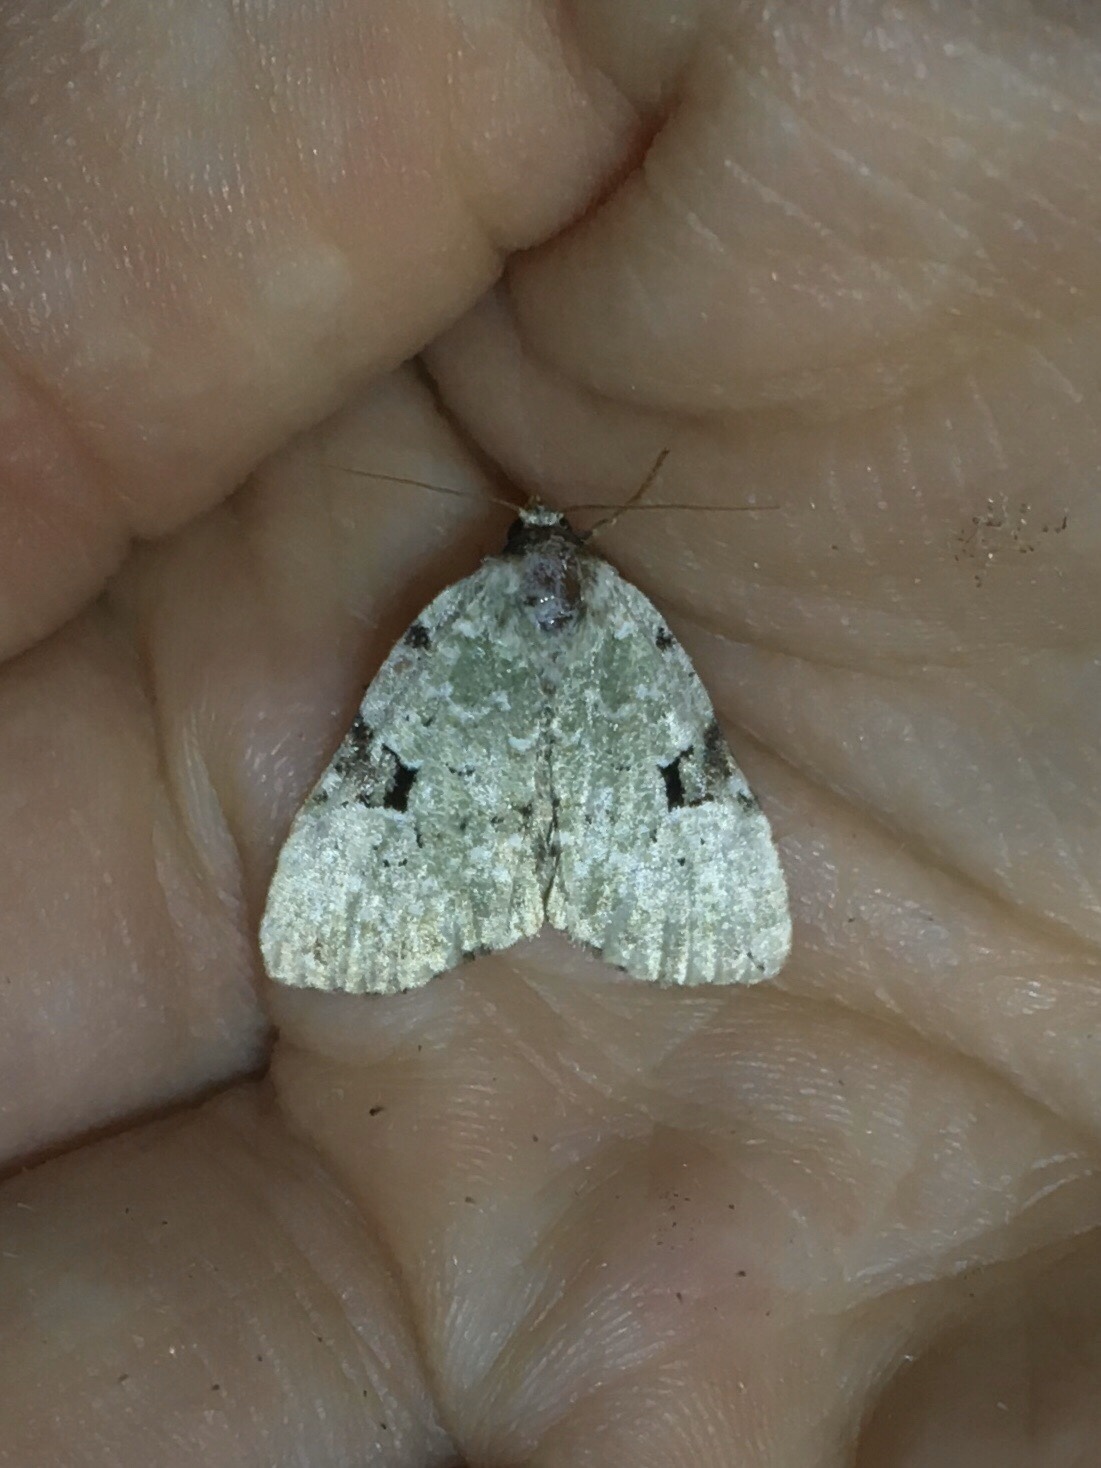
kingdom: Animalia
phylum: Arthropoda
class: Insecta
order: Lepidoptera
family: Noctuidae
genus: Leuconycta
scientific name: Leuconycta diphteroides
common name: Green leuconycta moth
